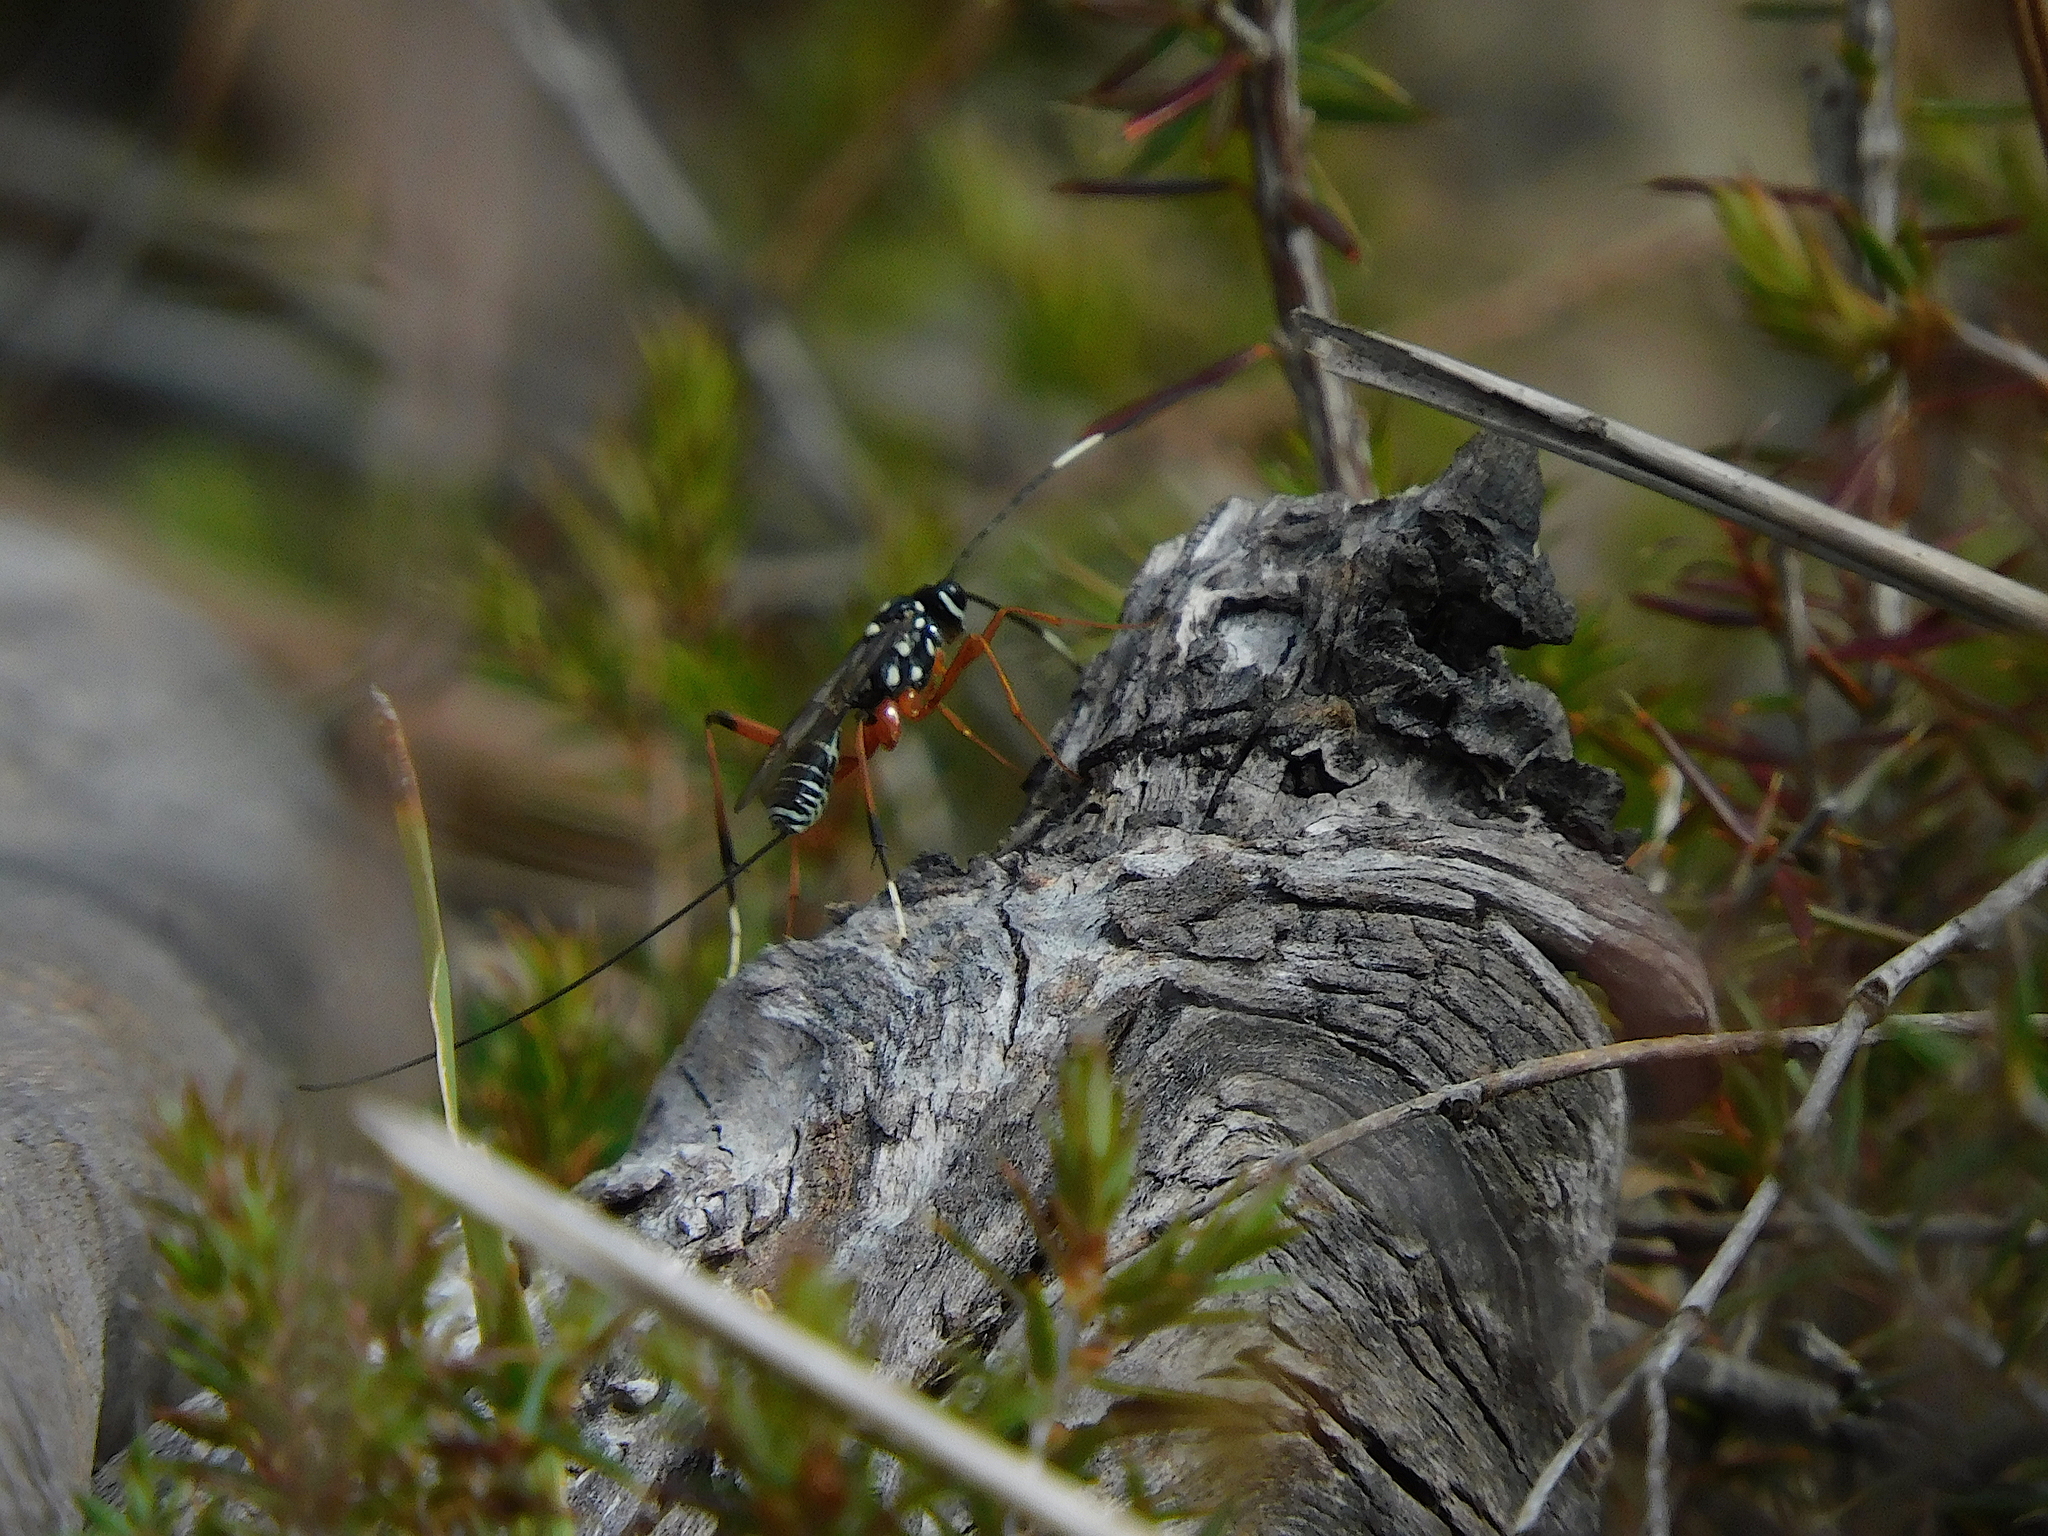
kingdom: Animalia
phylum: Arthropoda
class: Insecta
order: Hymenoptera
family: Ichneumonidae
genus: Stenarella
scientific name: Stenarella victoriae
